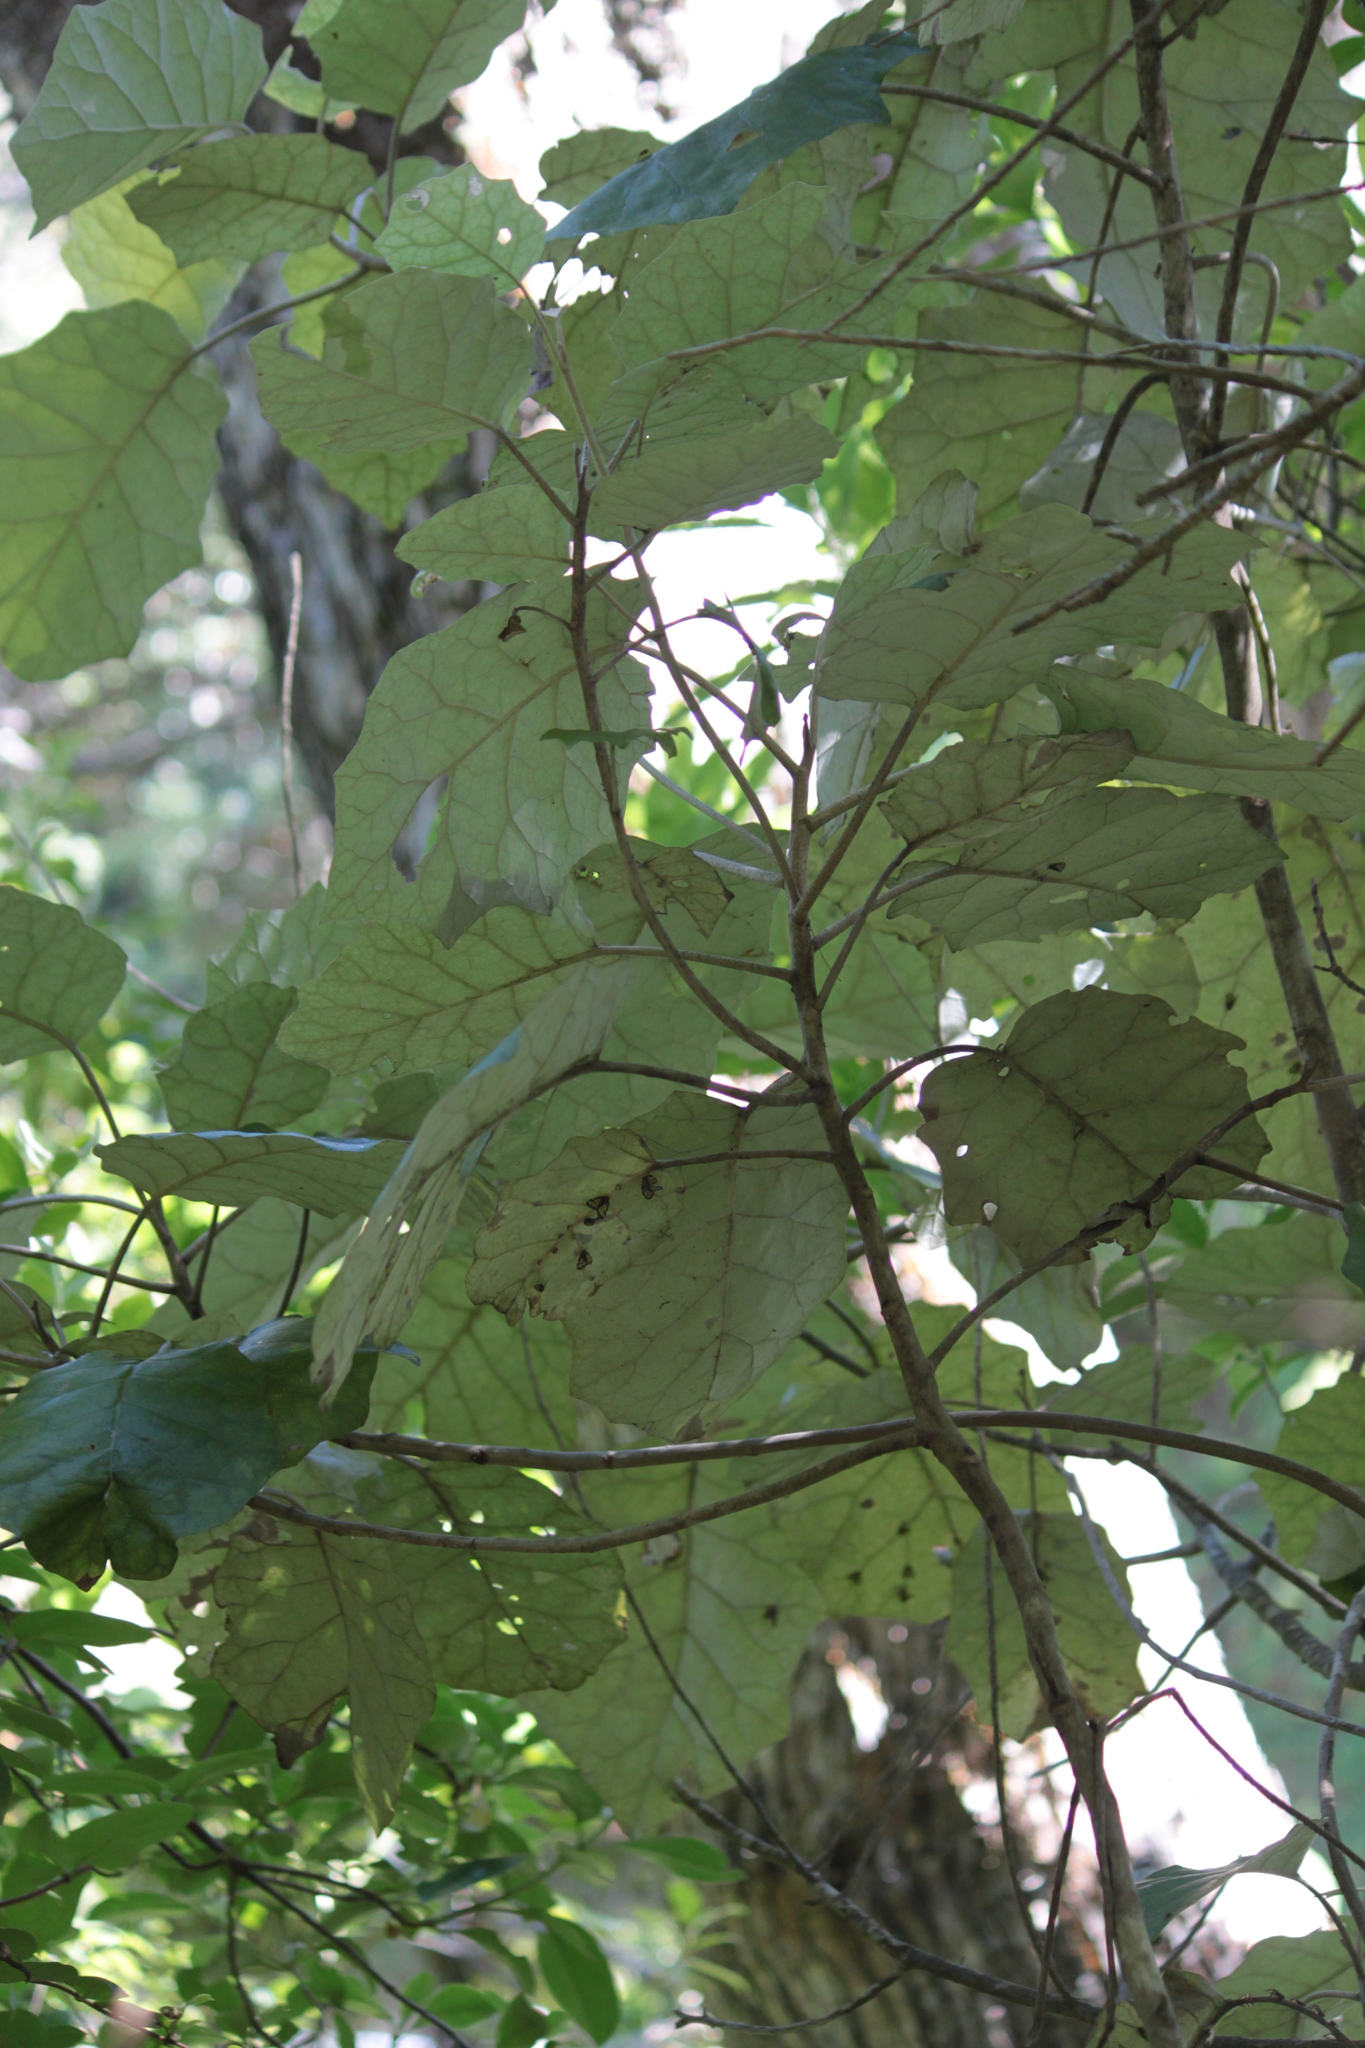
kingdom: Plantae
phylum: Tracheophyta
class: Magnoliopsida
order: Asterales
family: Asteraceae
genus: Brachyglottis
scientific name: Brachyglottis repanda
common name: Hedge ragwort
